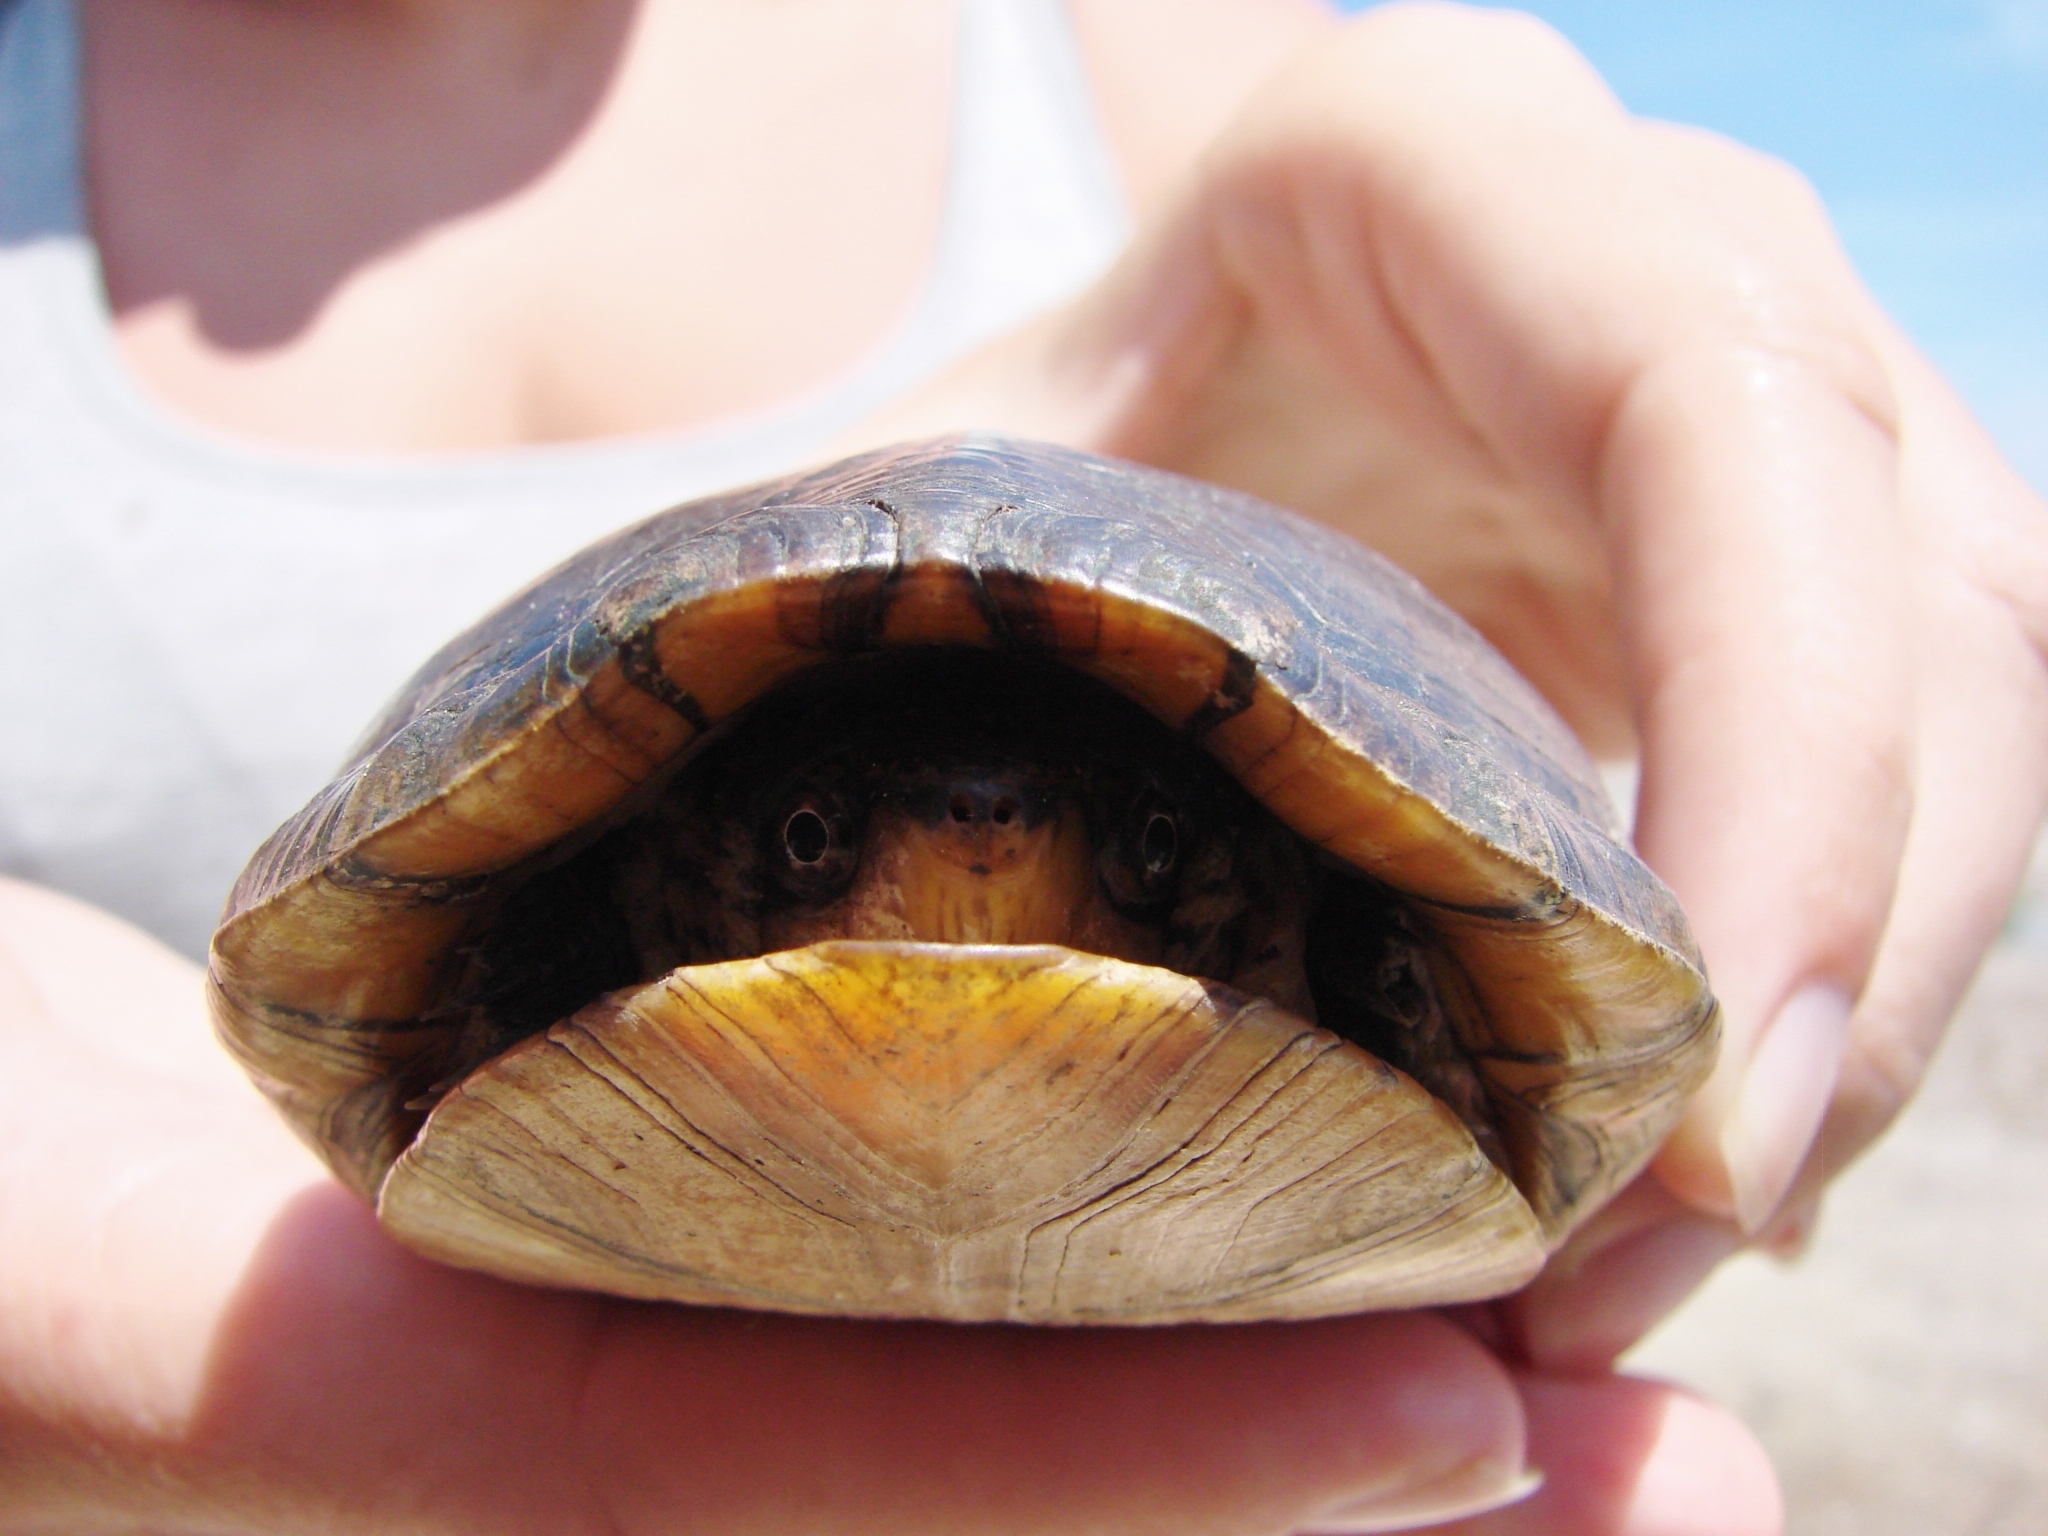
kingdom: Animalia
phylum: Chordata
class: Testudines
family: Kinosternidae
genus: Kinosternon
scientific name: Kinosternon leucostomum
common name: White-lipped mud turtle
